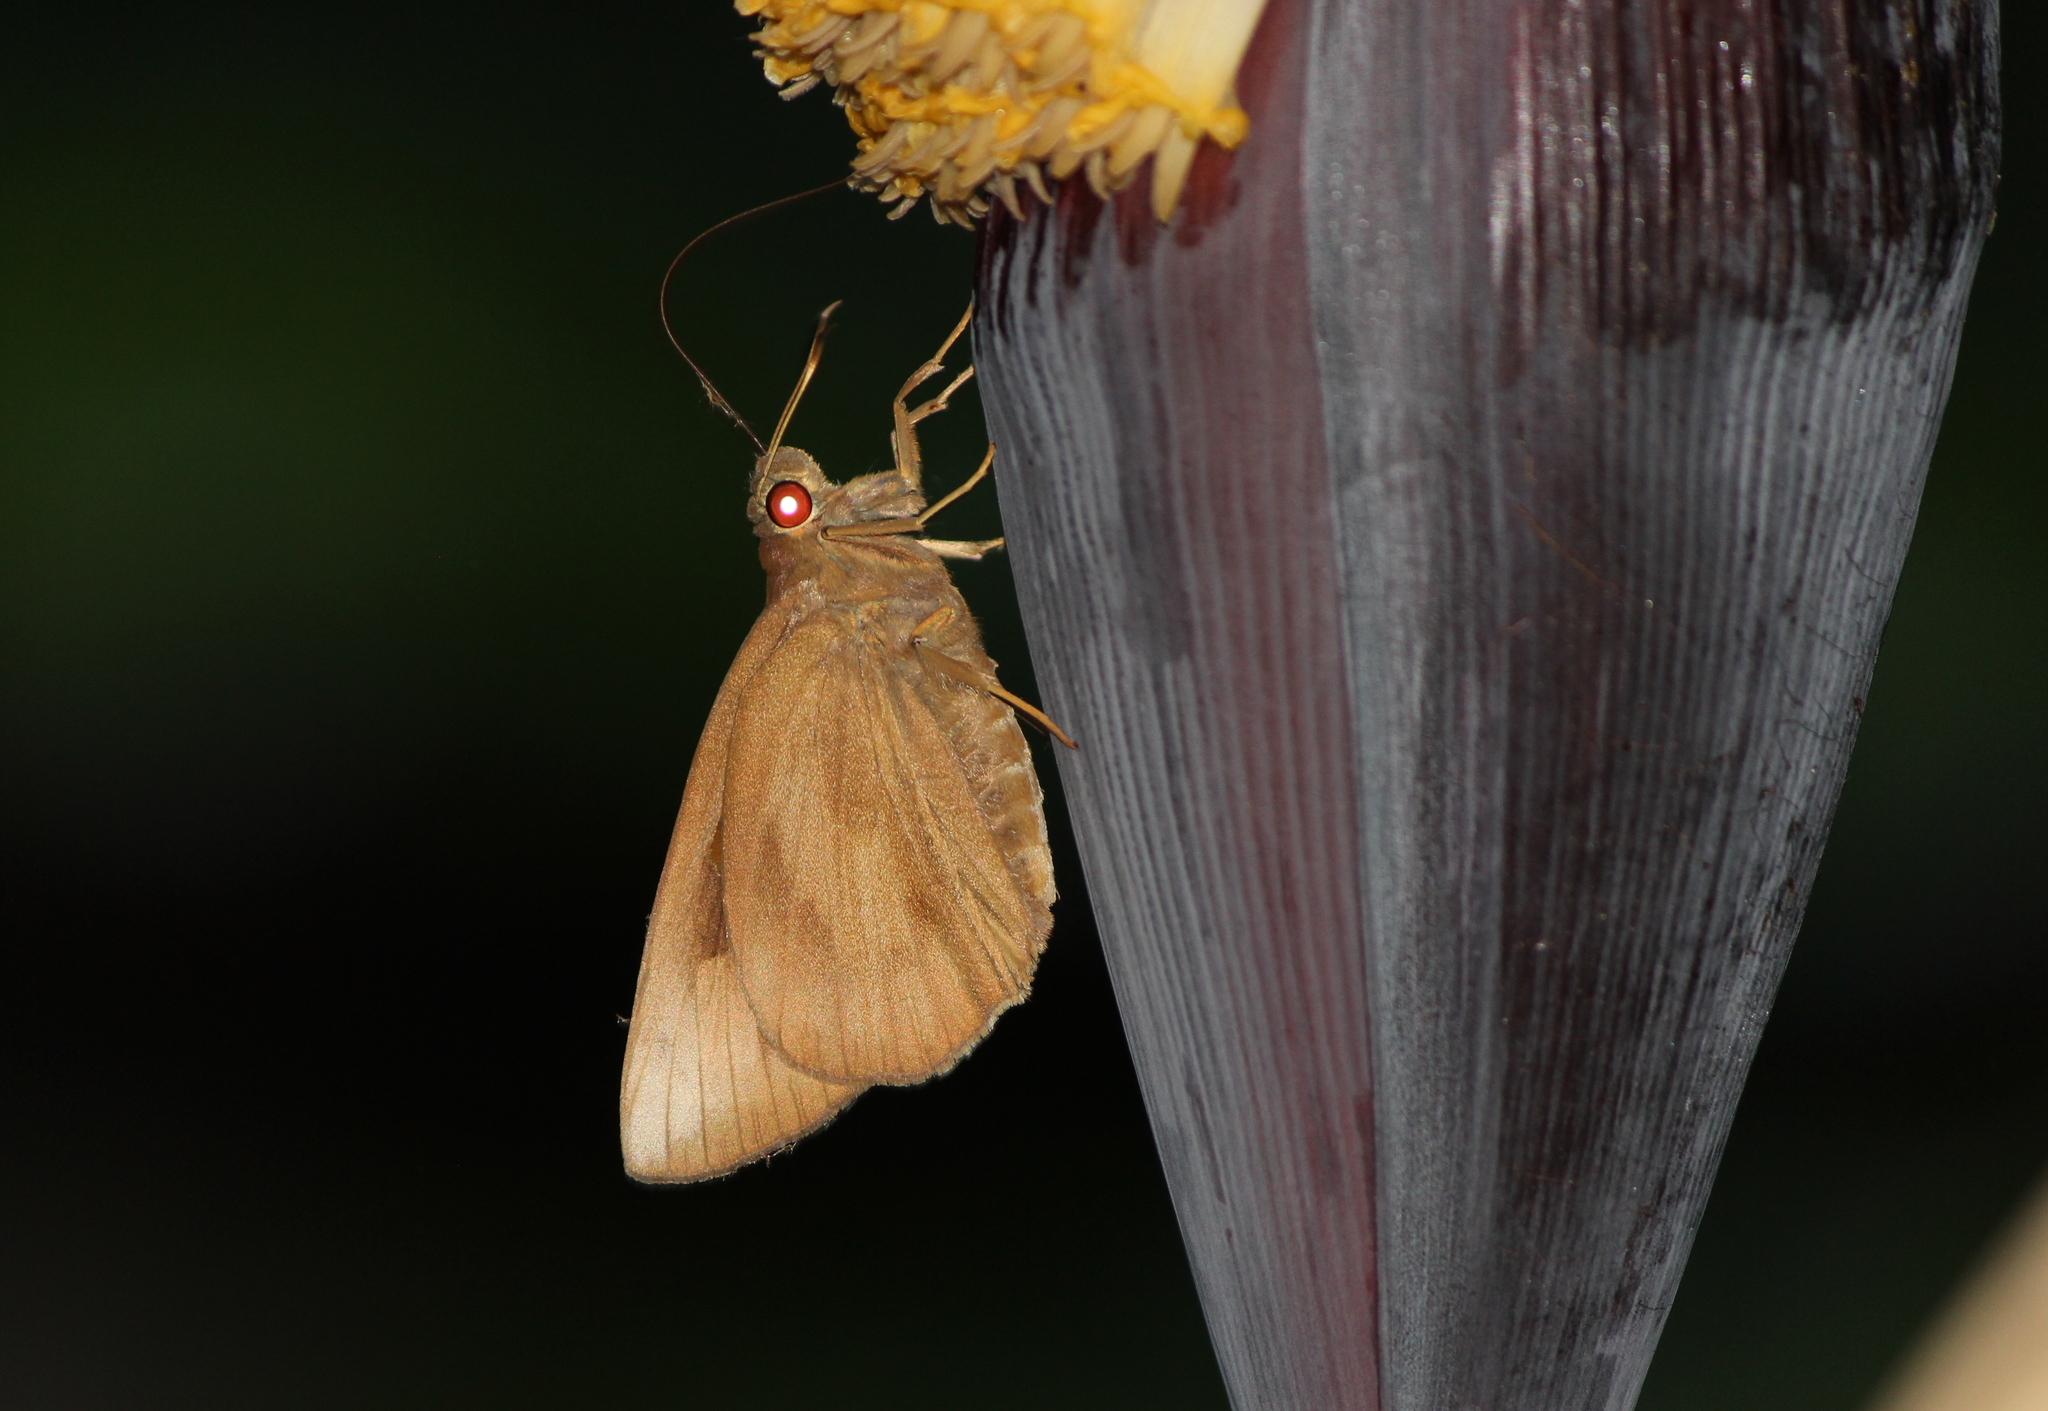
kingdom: Animalia
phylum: Arthropoda
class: Insecta
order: Lepidoptera
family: Hesperiidae
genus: Erionota
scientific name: Erionota torus
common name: Rounded palm-redeye
